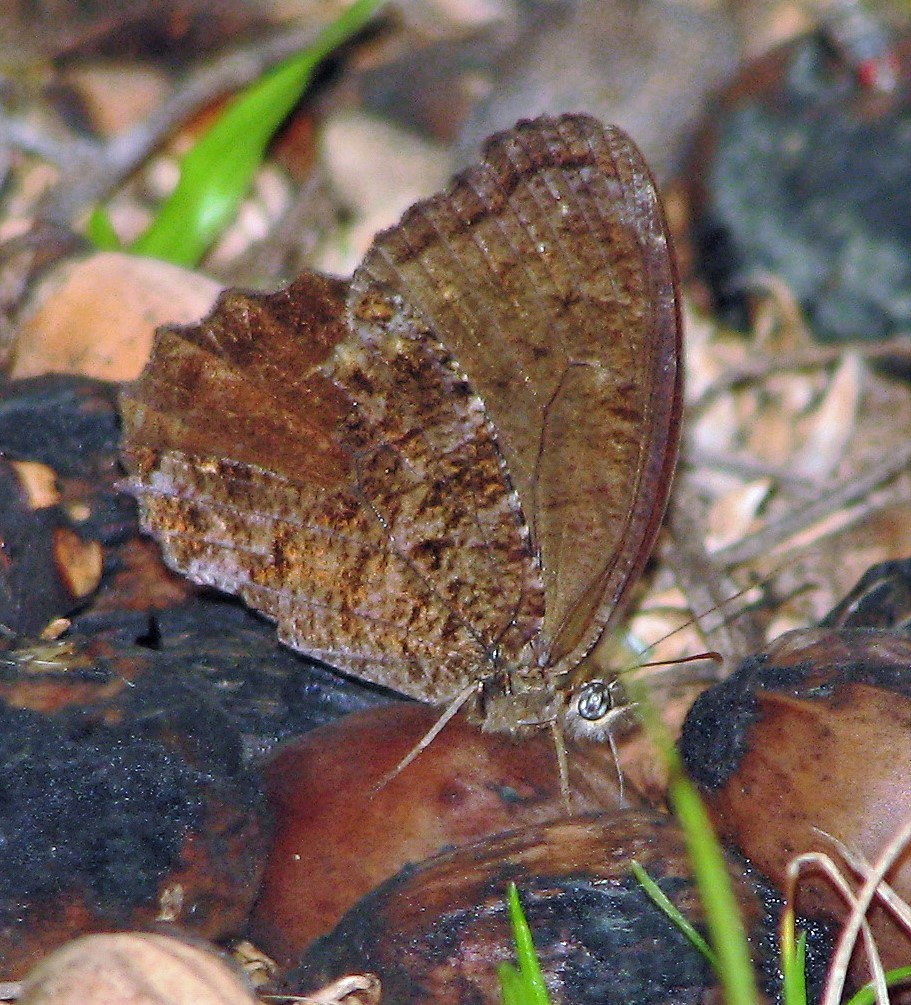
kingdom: Animalia
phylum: Arthropoda
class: Insecta
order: Lepidoptera
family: Nymphalidae
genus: Praepedaliodes
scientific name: Praepedaliodes phanias
